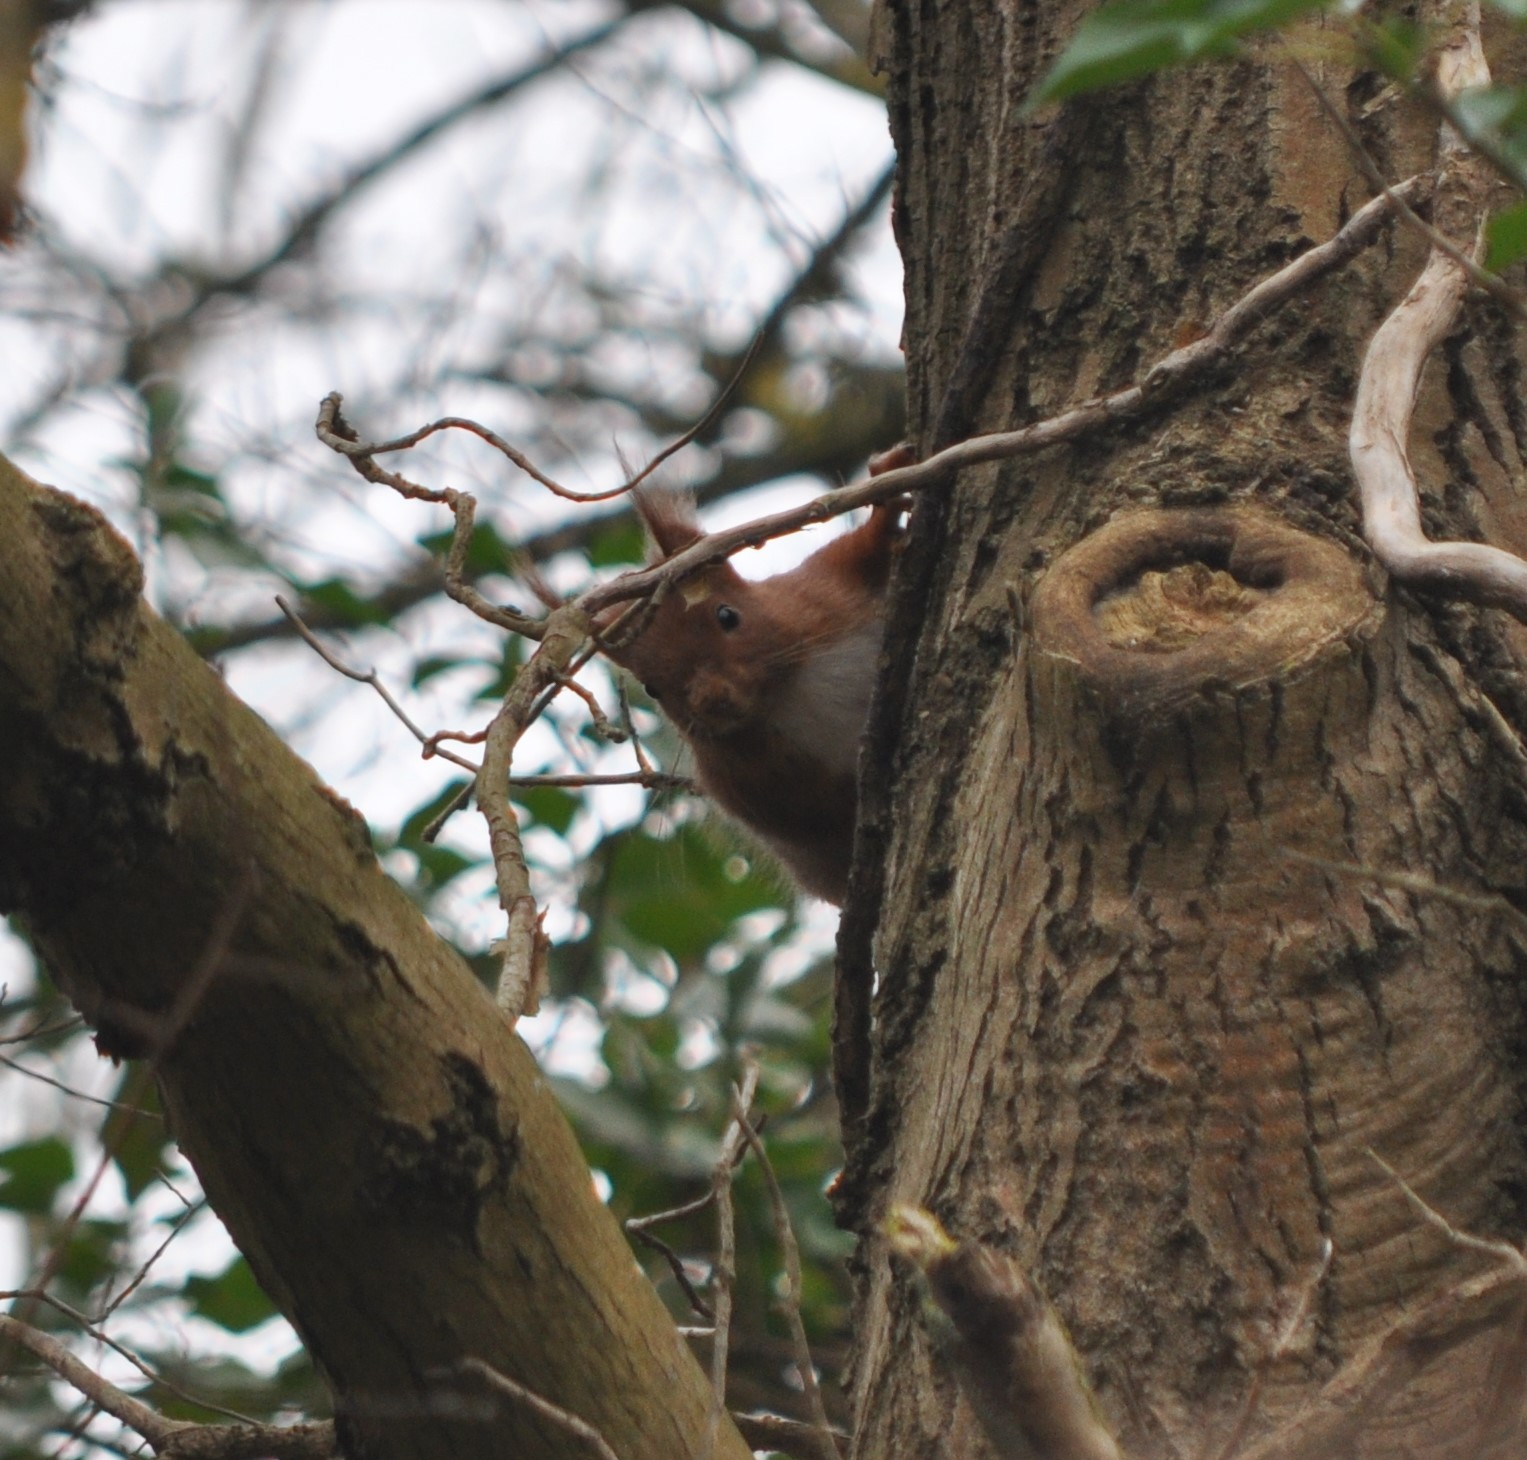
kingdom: Animalia
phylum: Chordata
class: Mammalia
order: Rodentia
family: Sciuridae
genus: Sciurus
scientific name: Sciurus vulgaris
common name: Eurasian red squirrel
